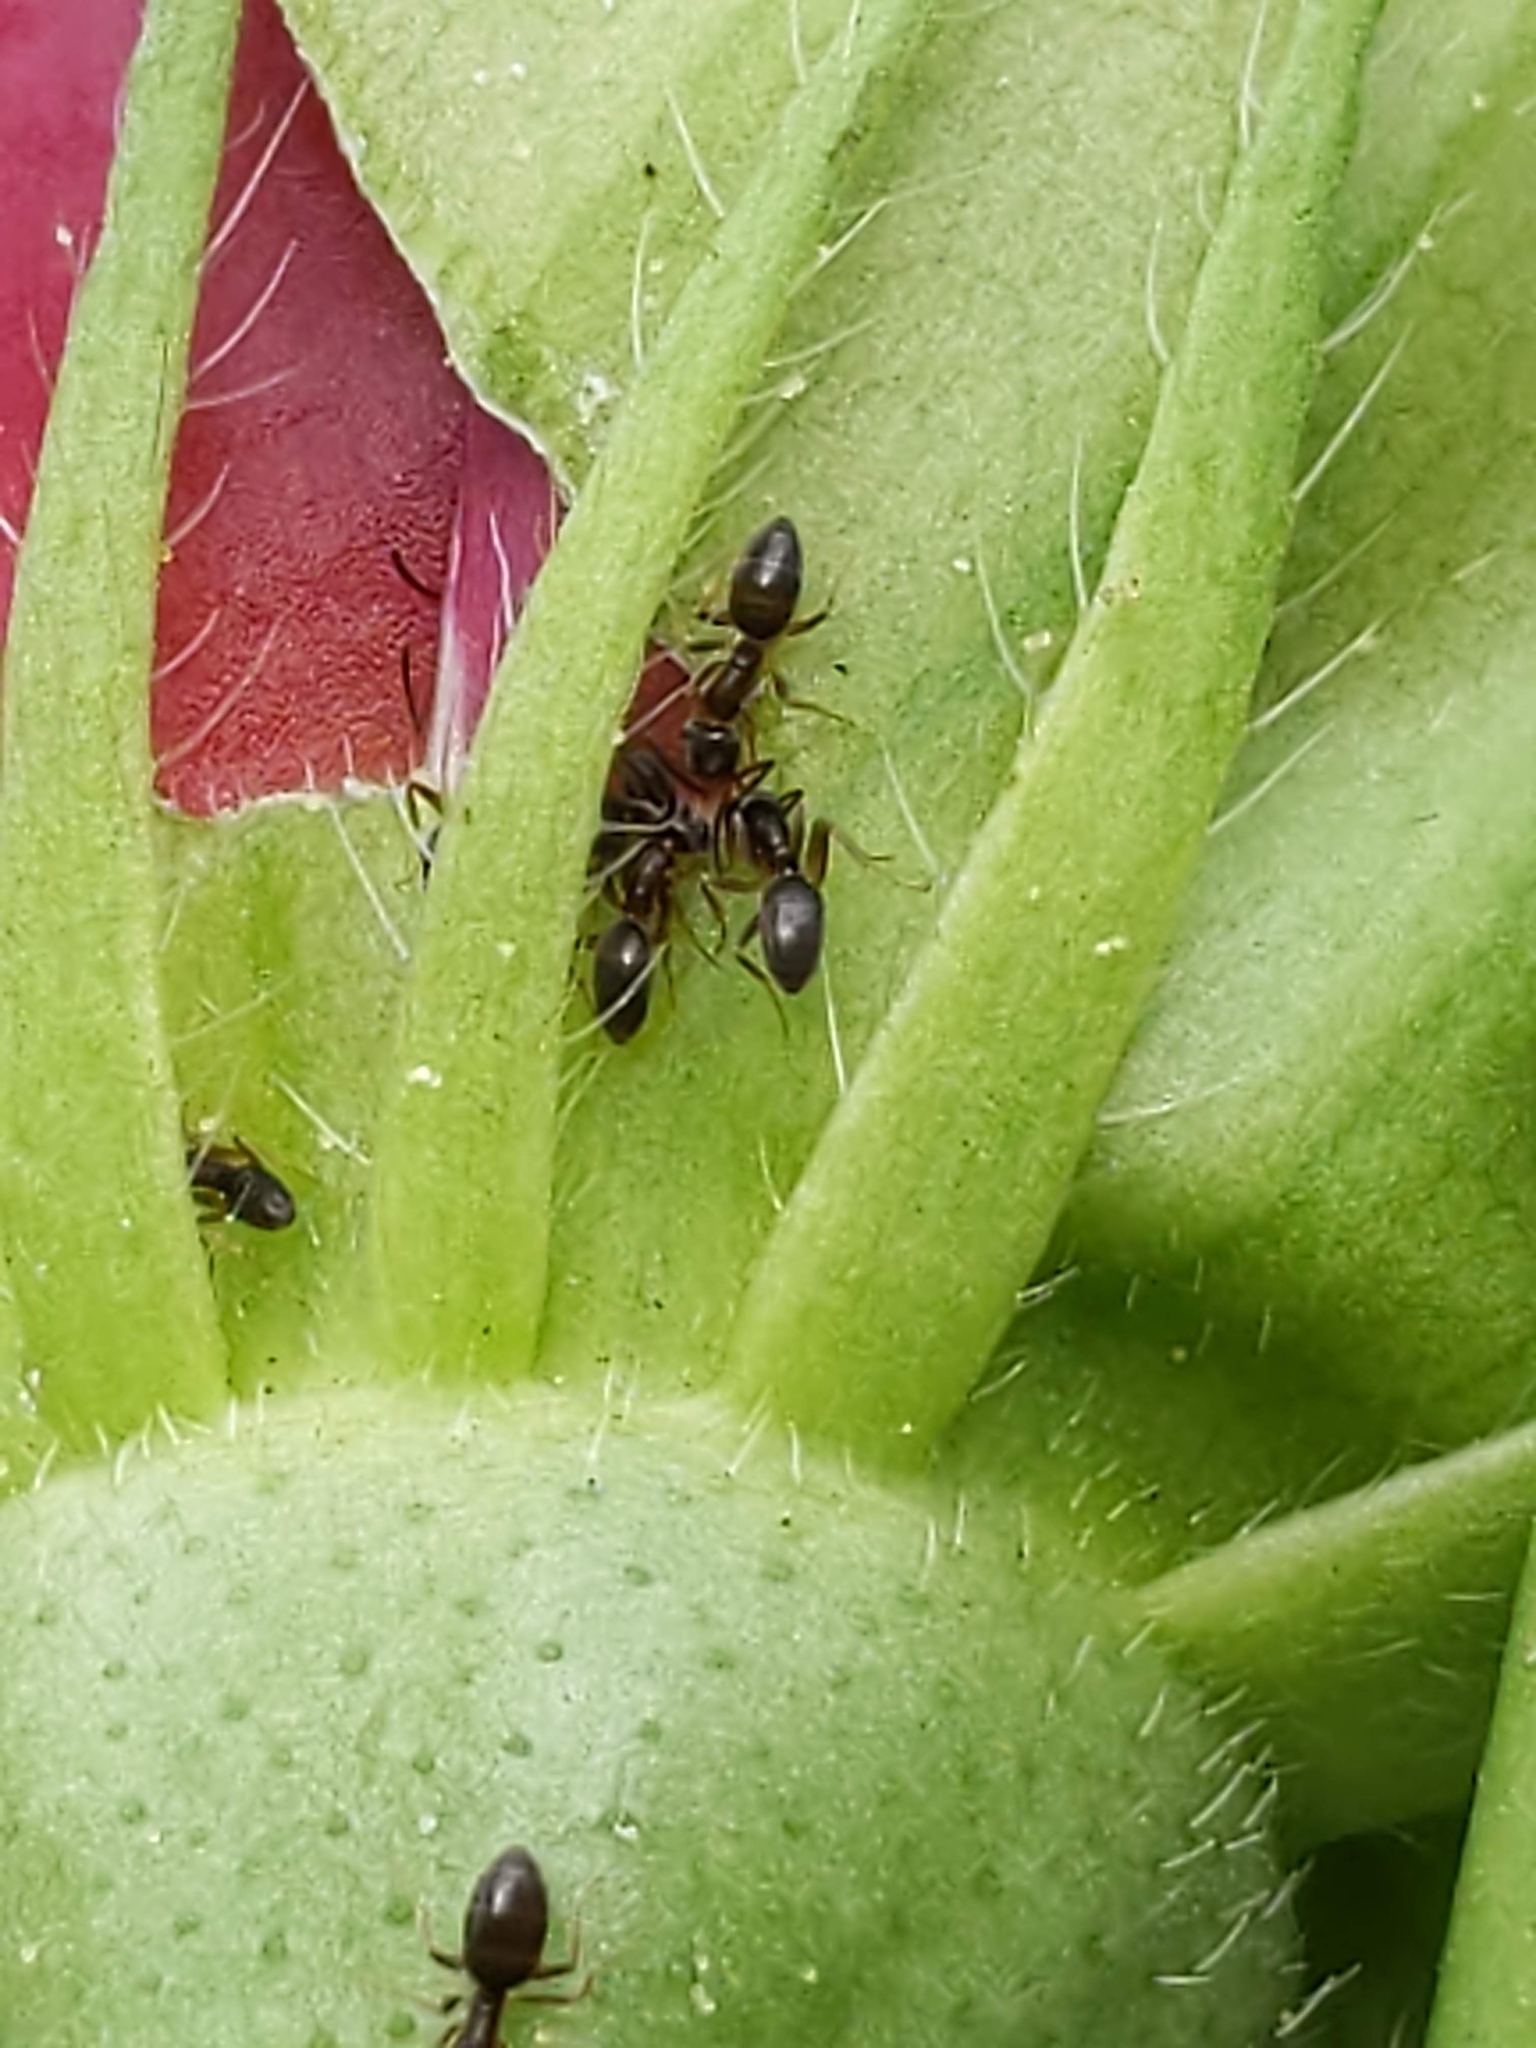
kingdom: Animalia
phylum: Arthropoda
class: Insecta
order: Hymenoptera
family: Formicidae
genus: Tapinoma
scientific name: Tapinoma sessile
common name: Odorous house ant
